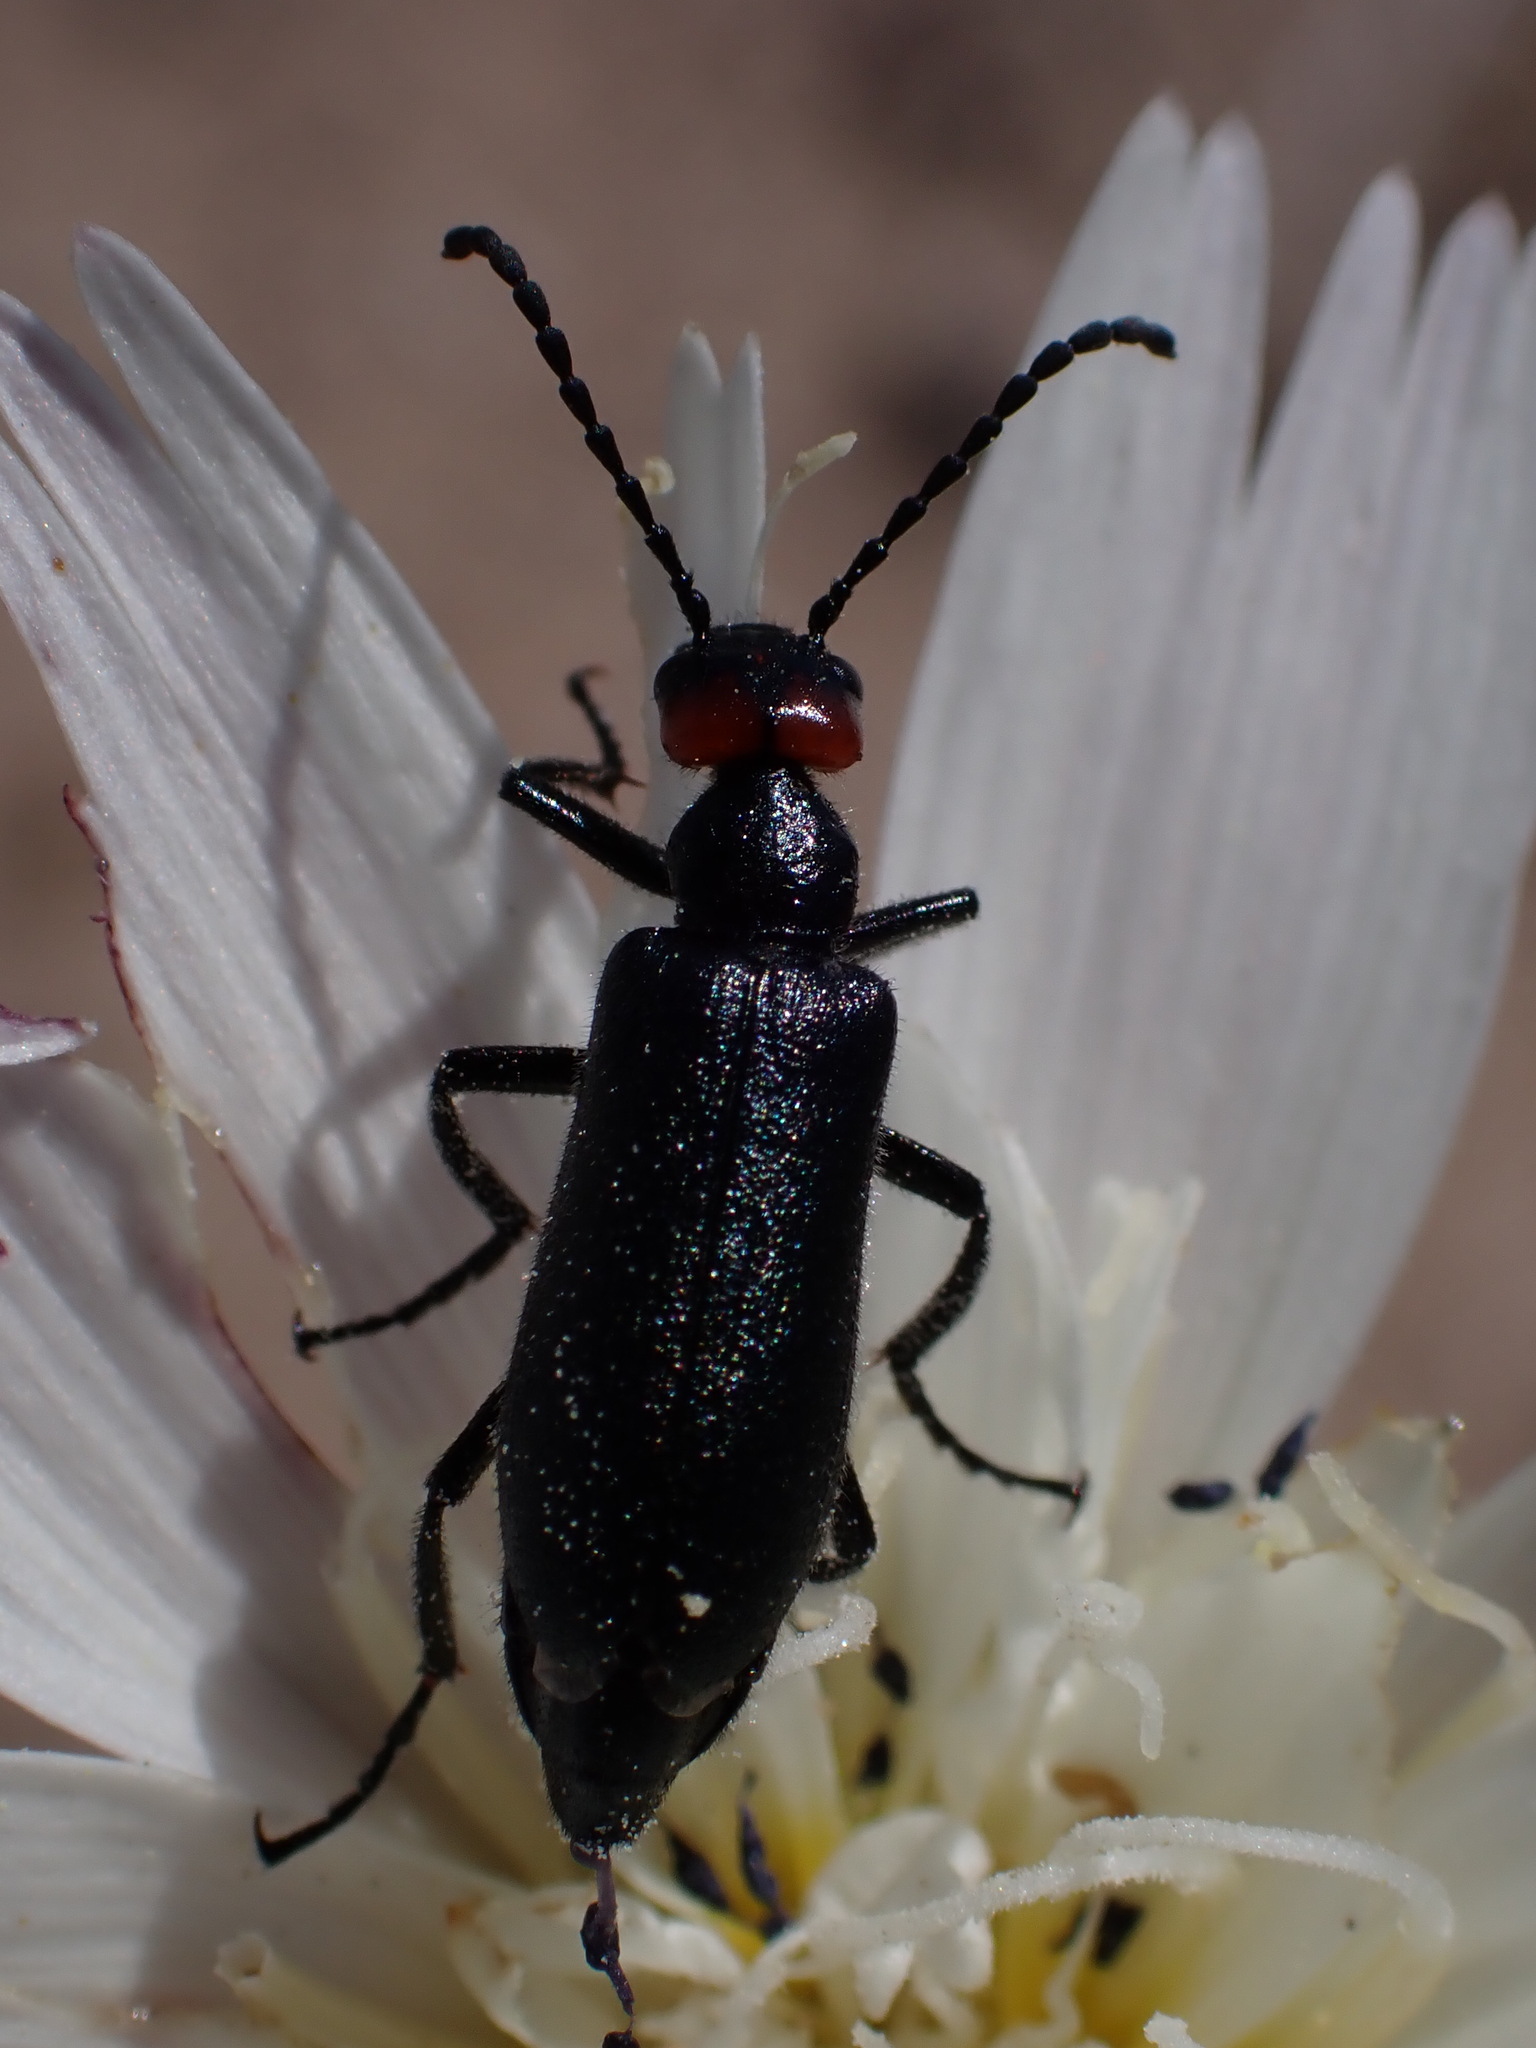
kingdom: Animalia
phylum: Arthropoda
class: Insecta
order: Coleoptera
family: Meloidae
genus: Lytta
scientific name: Lytta auriculata
